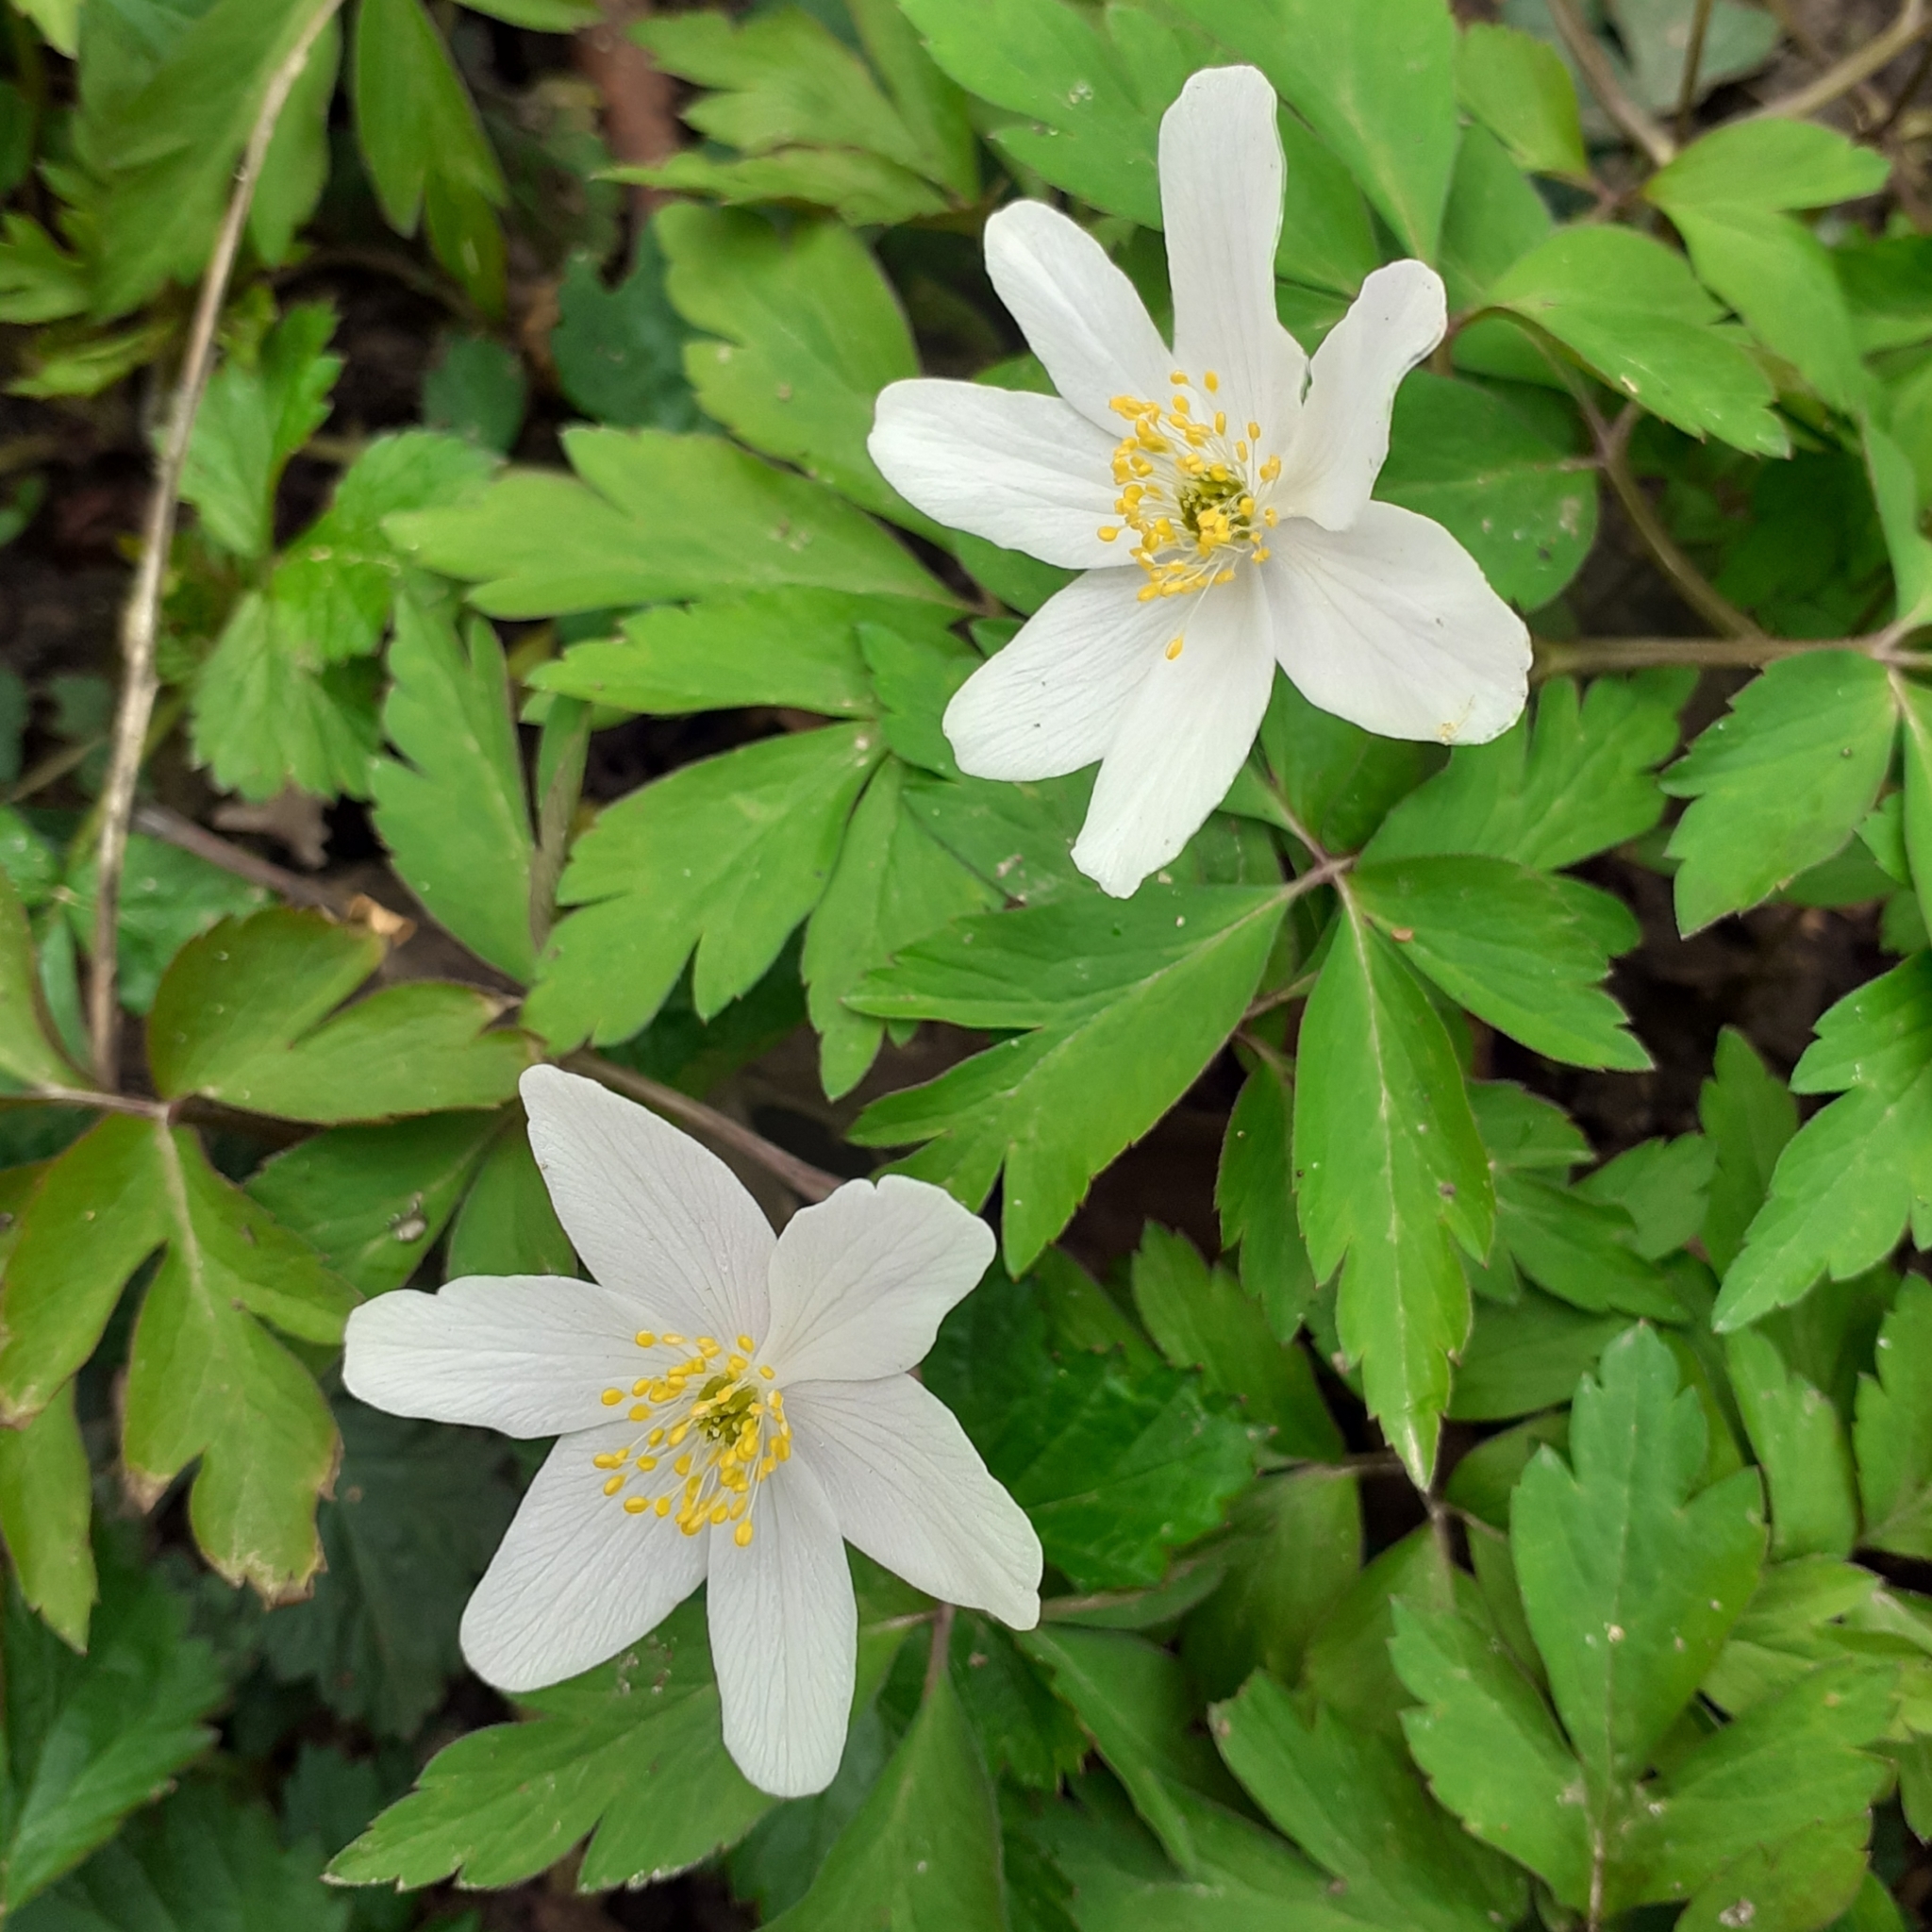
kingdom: Plantae
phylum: Tracheophyta
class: Magnoliopsida
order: Ranunculales
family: Ranunculaceae
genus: Anemone
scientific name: Anemone nemorosa
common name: Wood anemone
